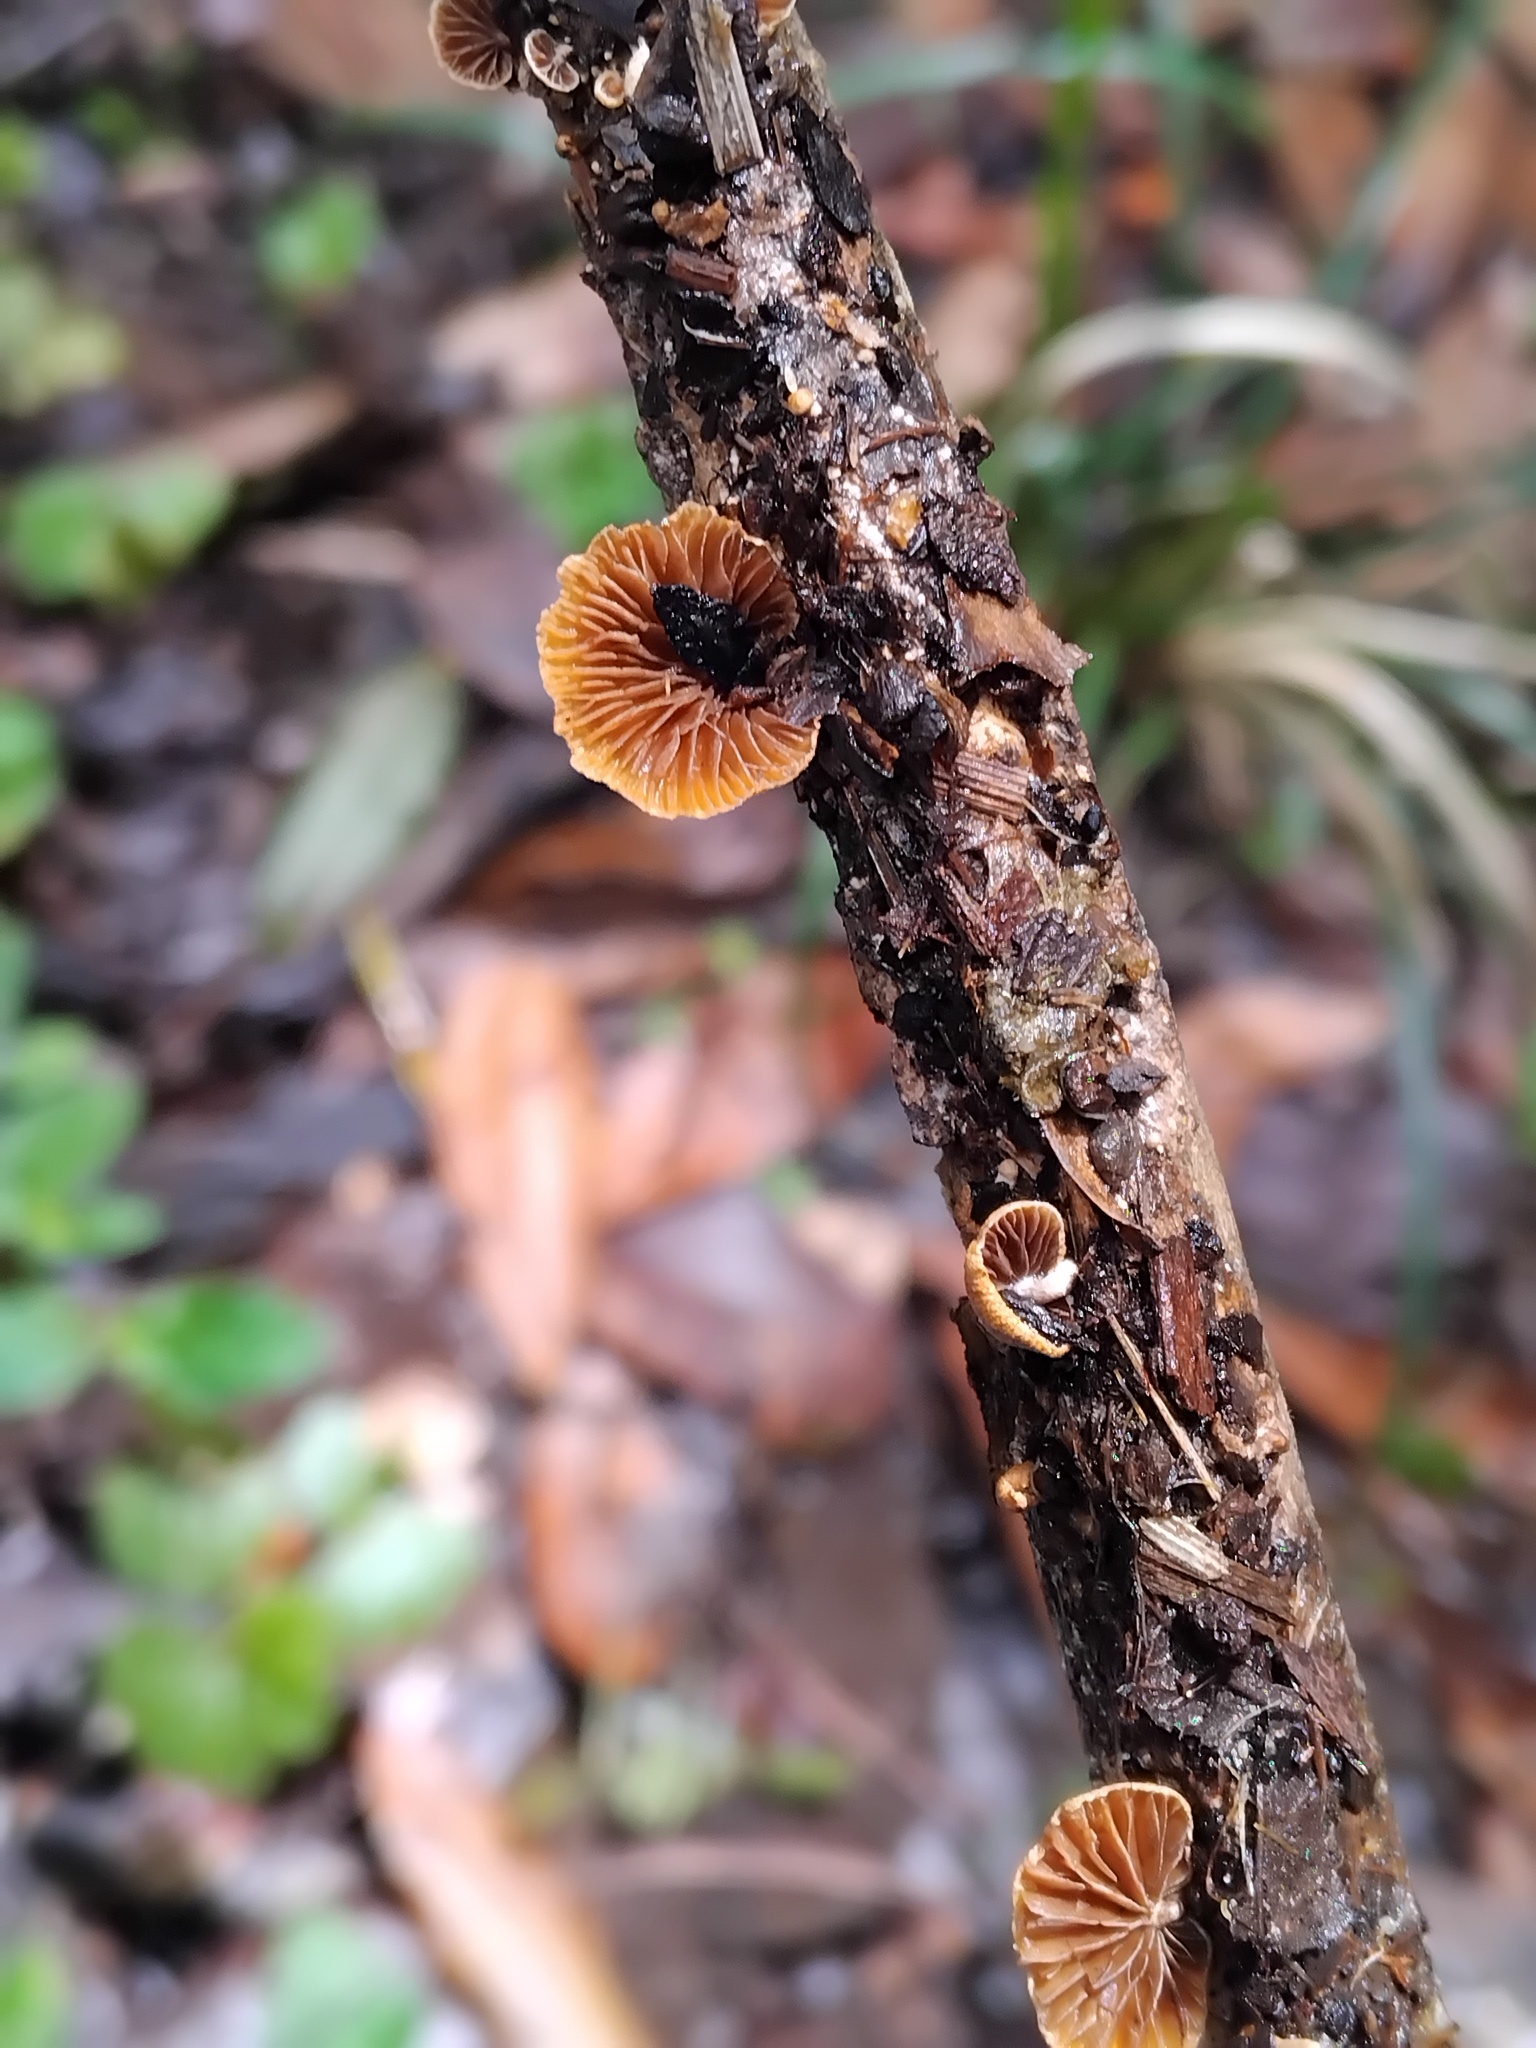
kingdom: Fungi
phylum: Basidiomycota
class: Agaricomycetes
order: Agaricales
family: Strophariaceae
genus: Deconica
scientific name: Deconica horizontalis
